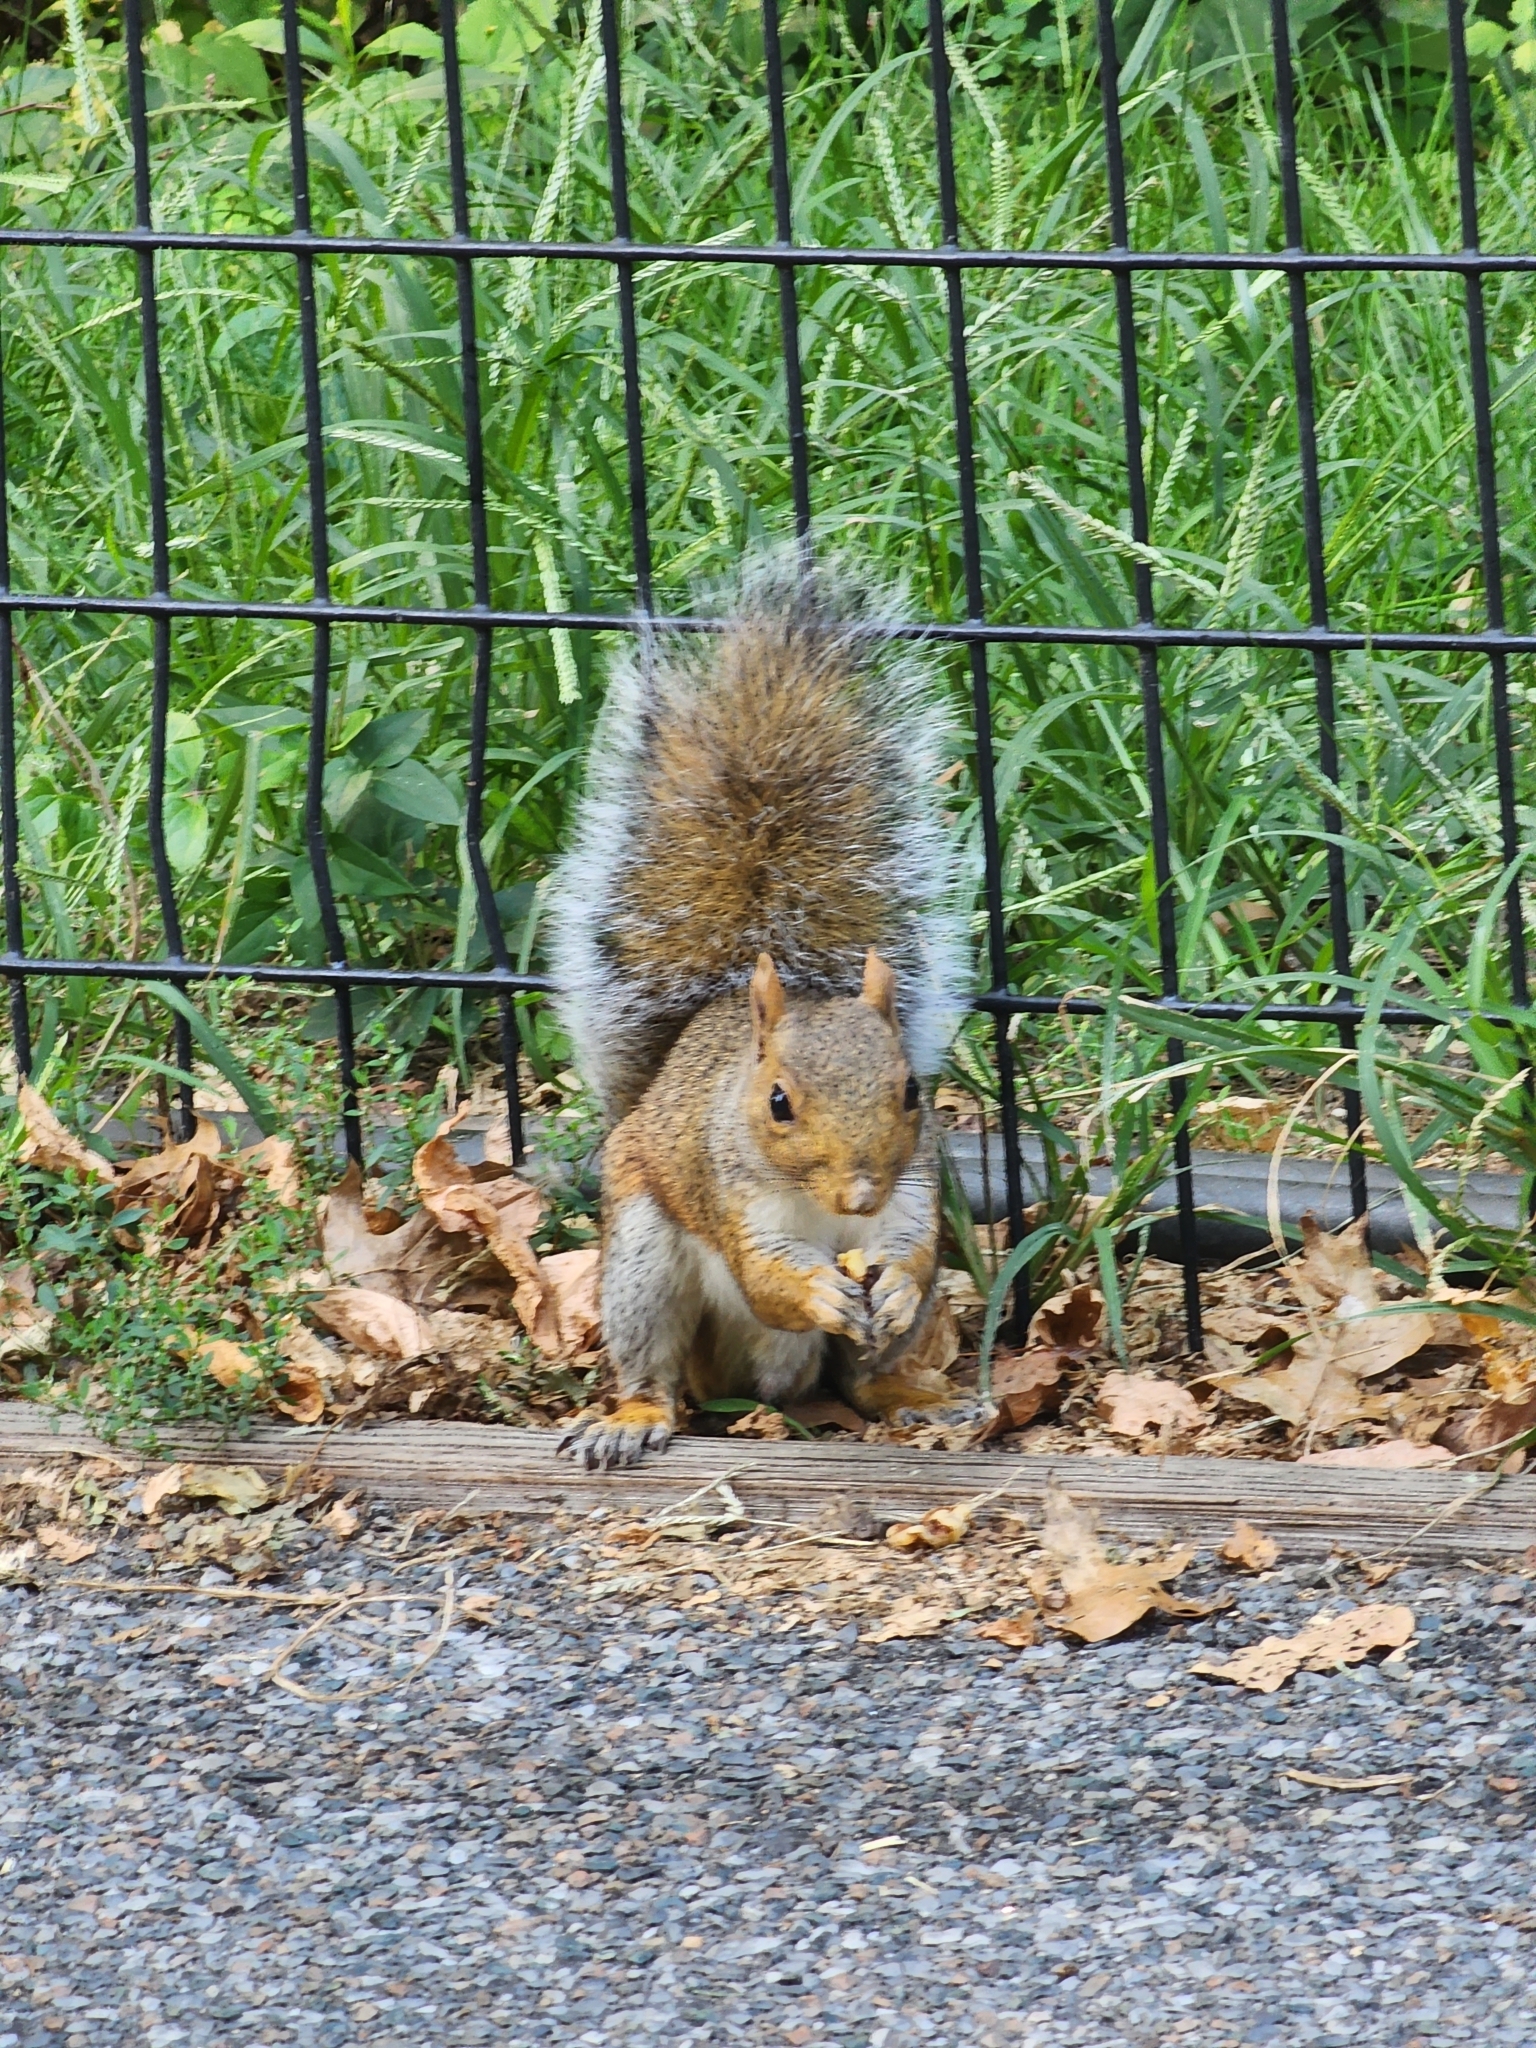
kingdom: Animalia
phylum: Chordata
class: Mammalia
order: Rodentia
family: Sciuridae
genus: Sciurus
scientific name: Sciurus carolinensis
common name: Eastern gray squirrel
